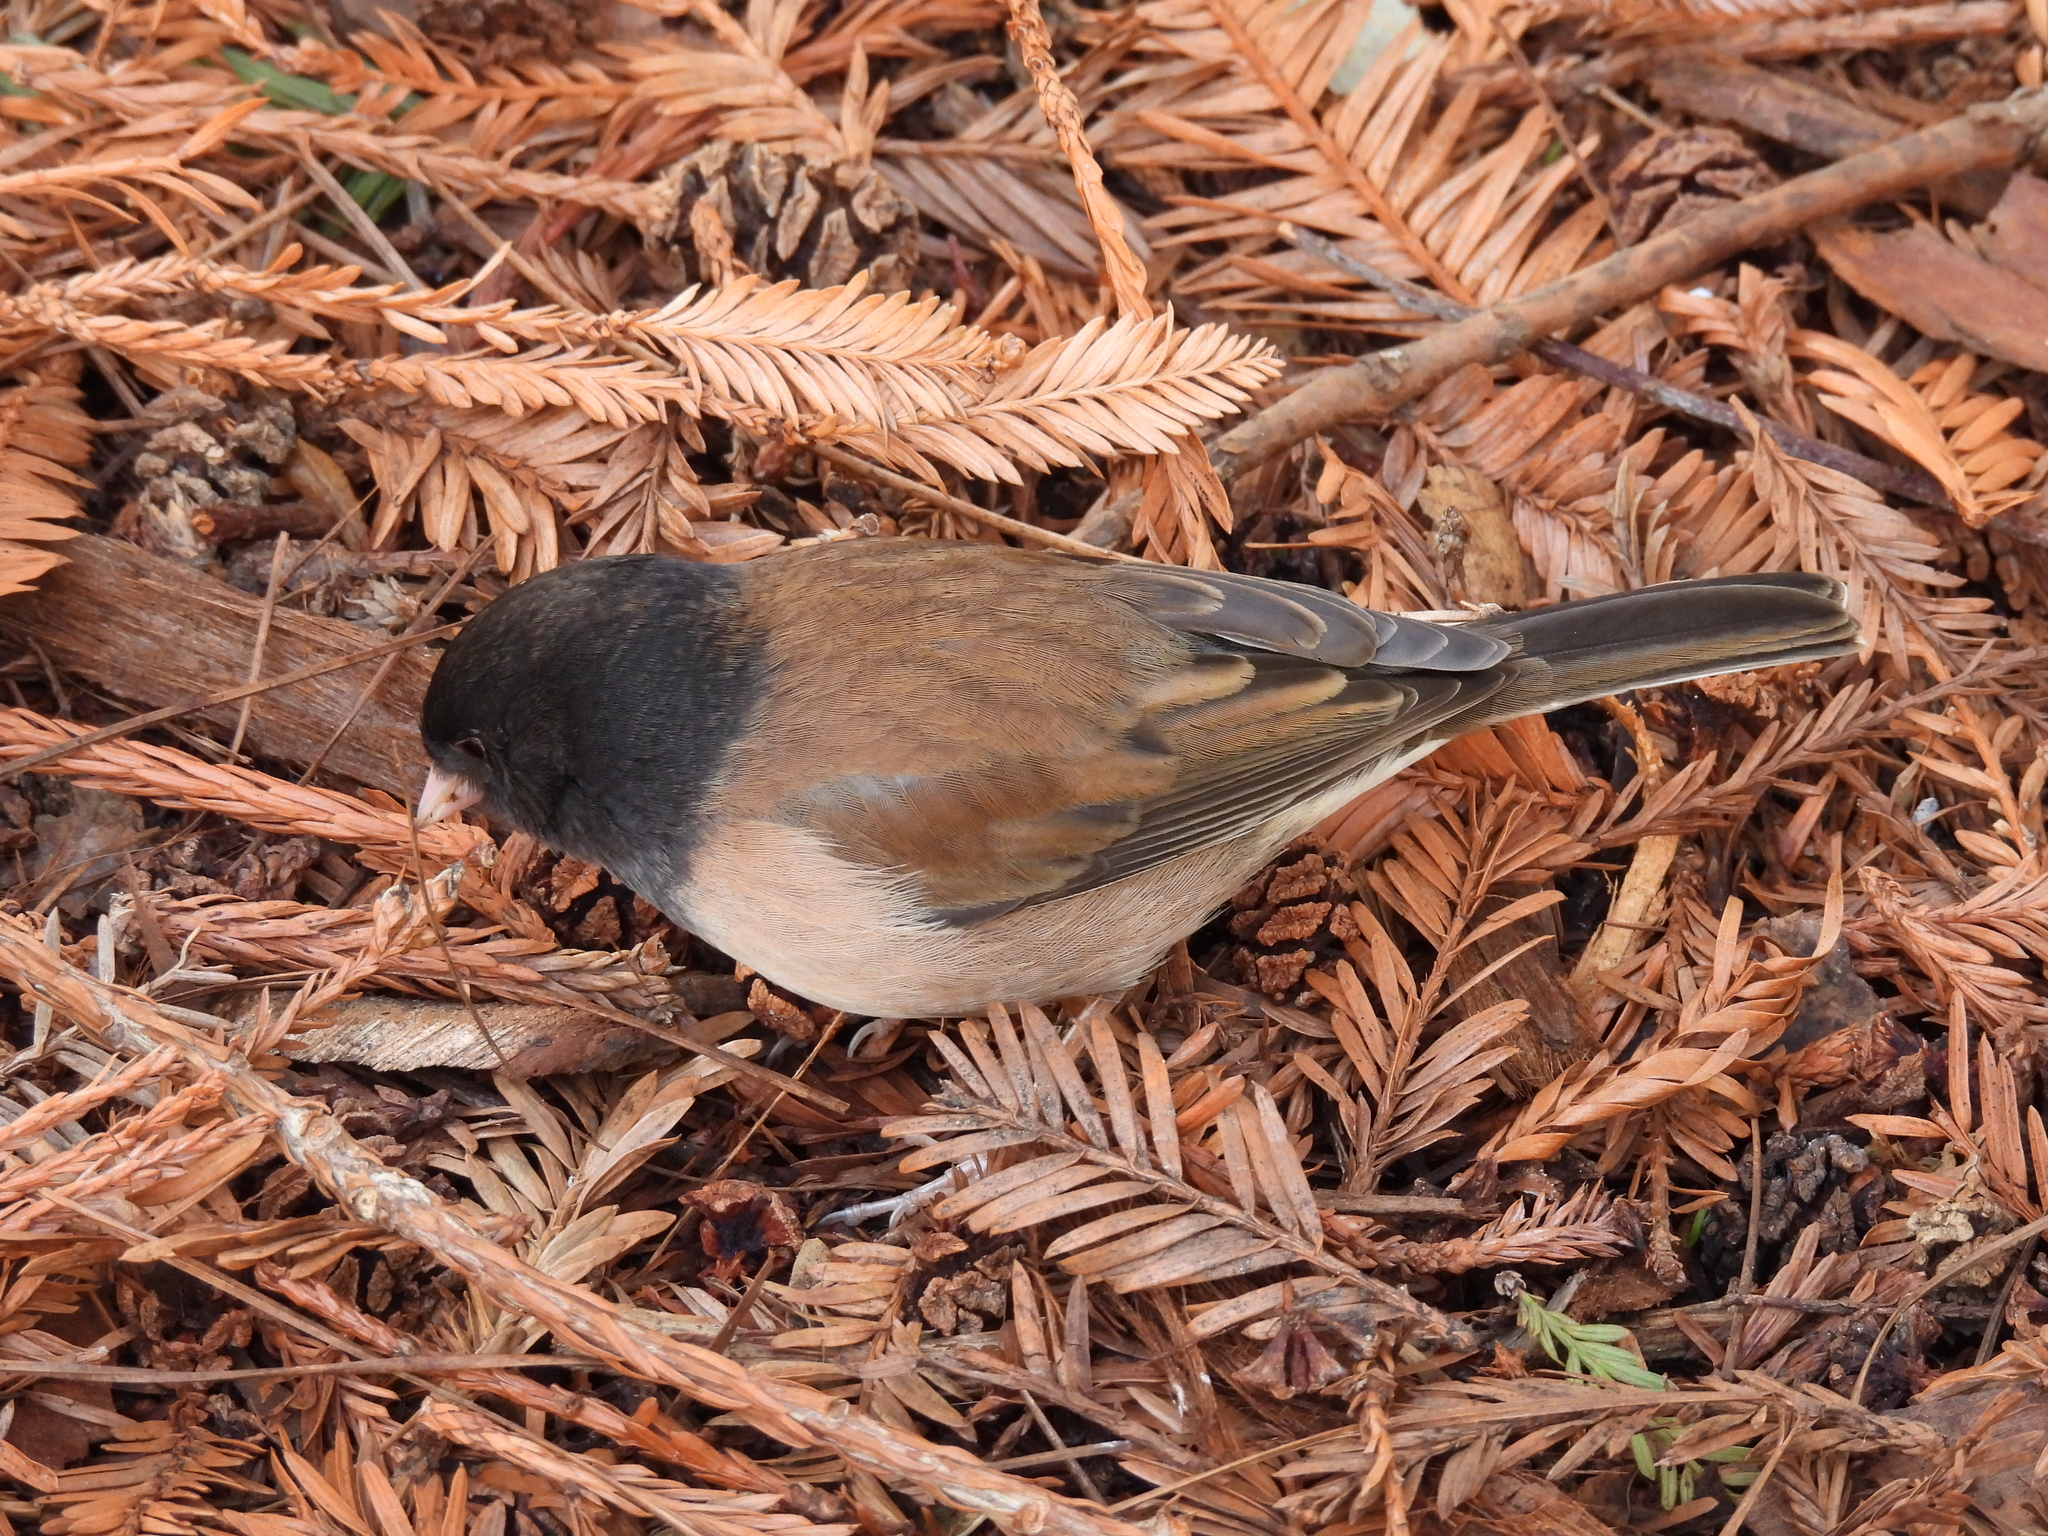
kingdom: Animalia
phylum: Chordata
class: Aves
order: Passeriformes
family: Passerellidae
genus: Junco
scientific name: Junco hyemalis
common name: Dark-eyed junco
